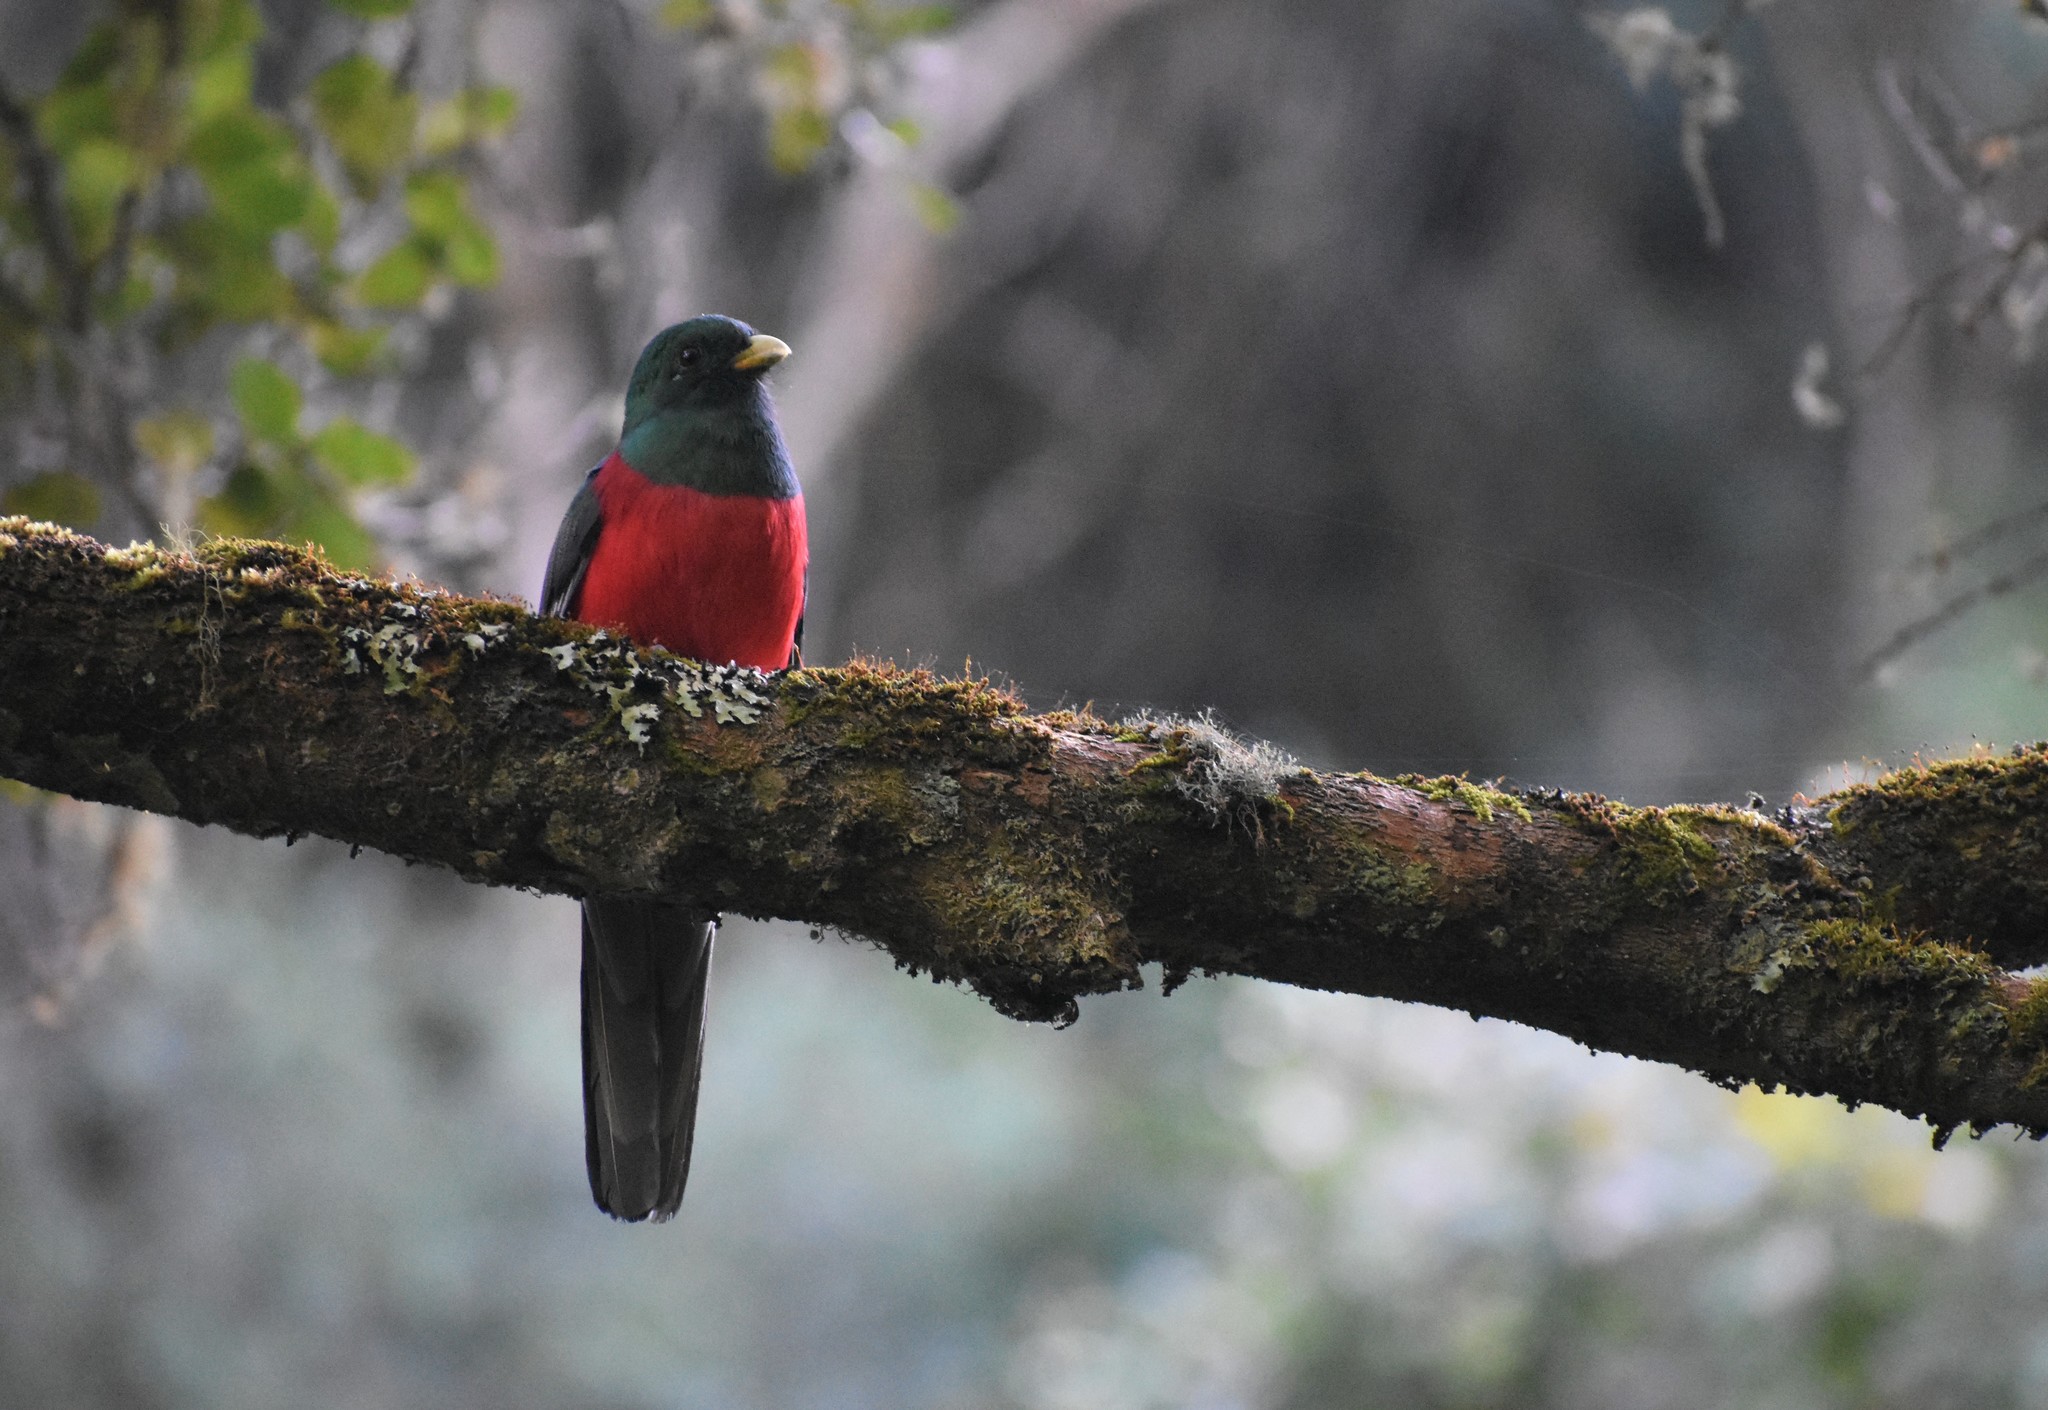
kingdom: Animalia
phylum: Chordata
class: Aves
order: Trogoniformes
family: Trogonidae
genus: Apaloderma
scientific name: Apaloderma narina
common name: Narina trogon
